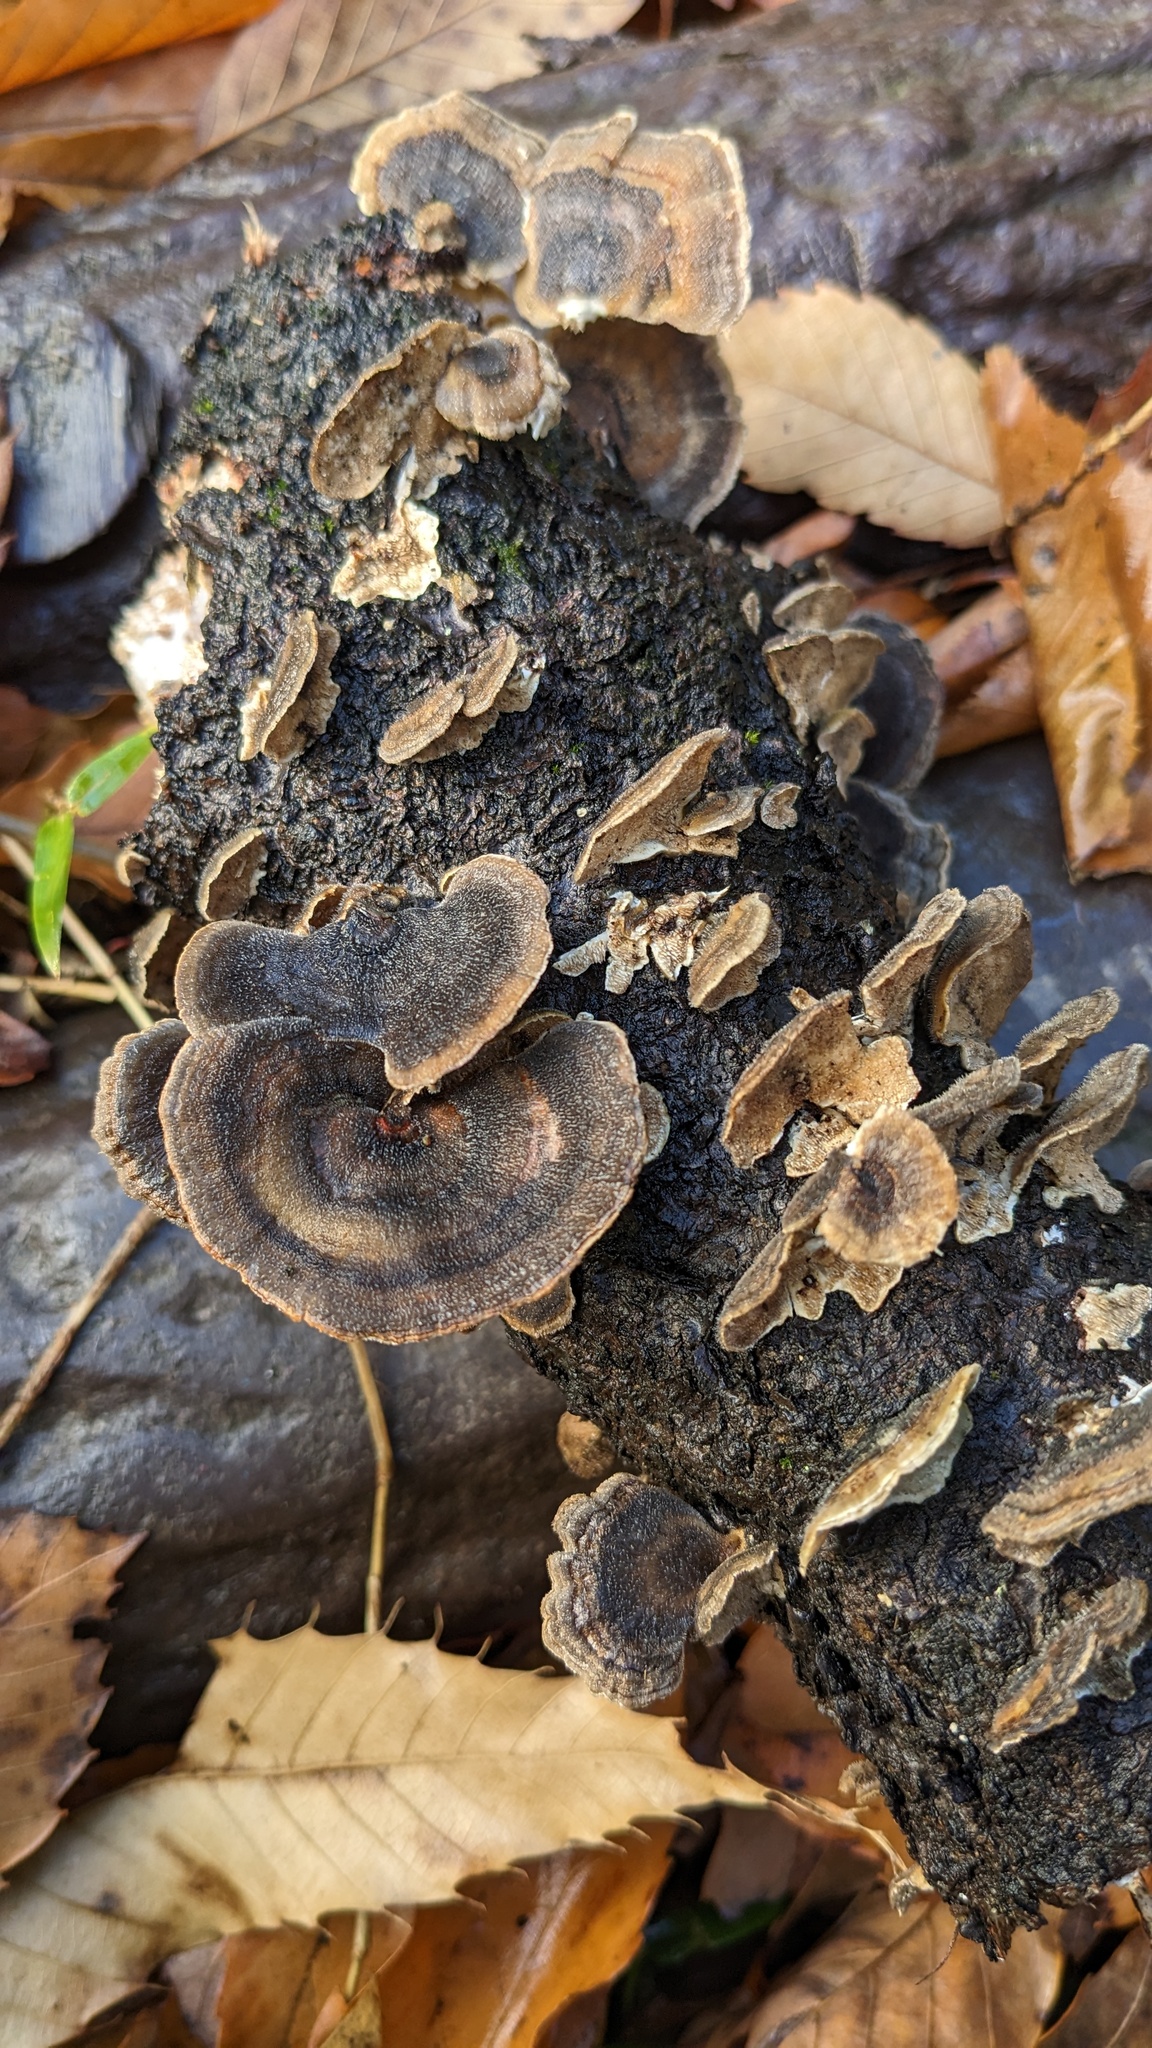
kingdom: Fungi
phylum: Basidiomycota
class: Agaricomycetes
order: Polyporales
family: Polyporaceae
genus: Trametes
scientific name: Trametes versicolor
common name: Turkeytail
